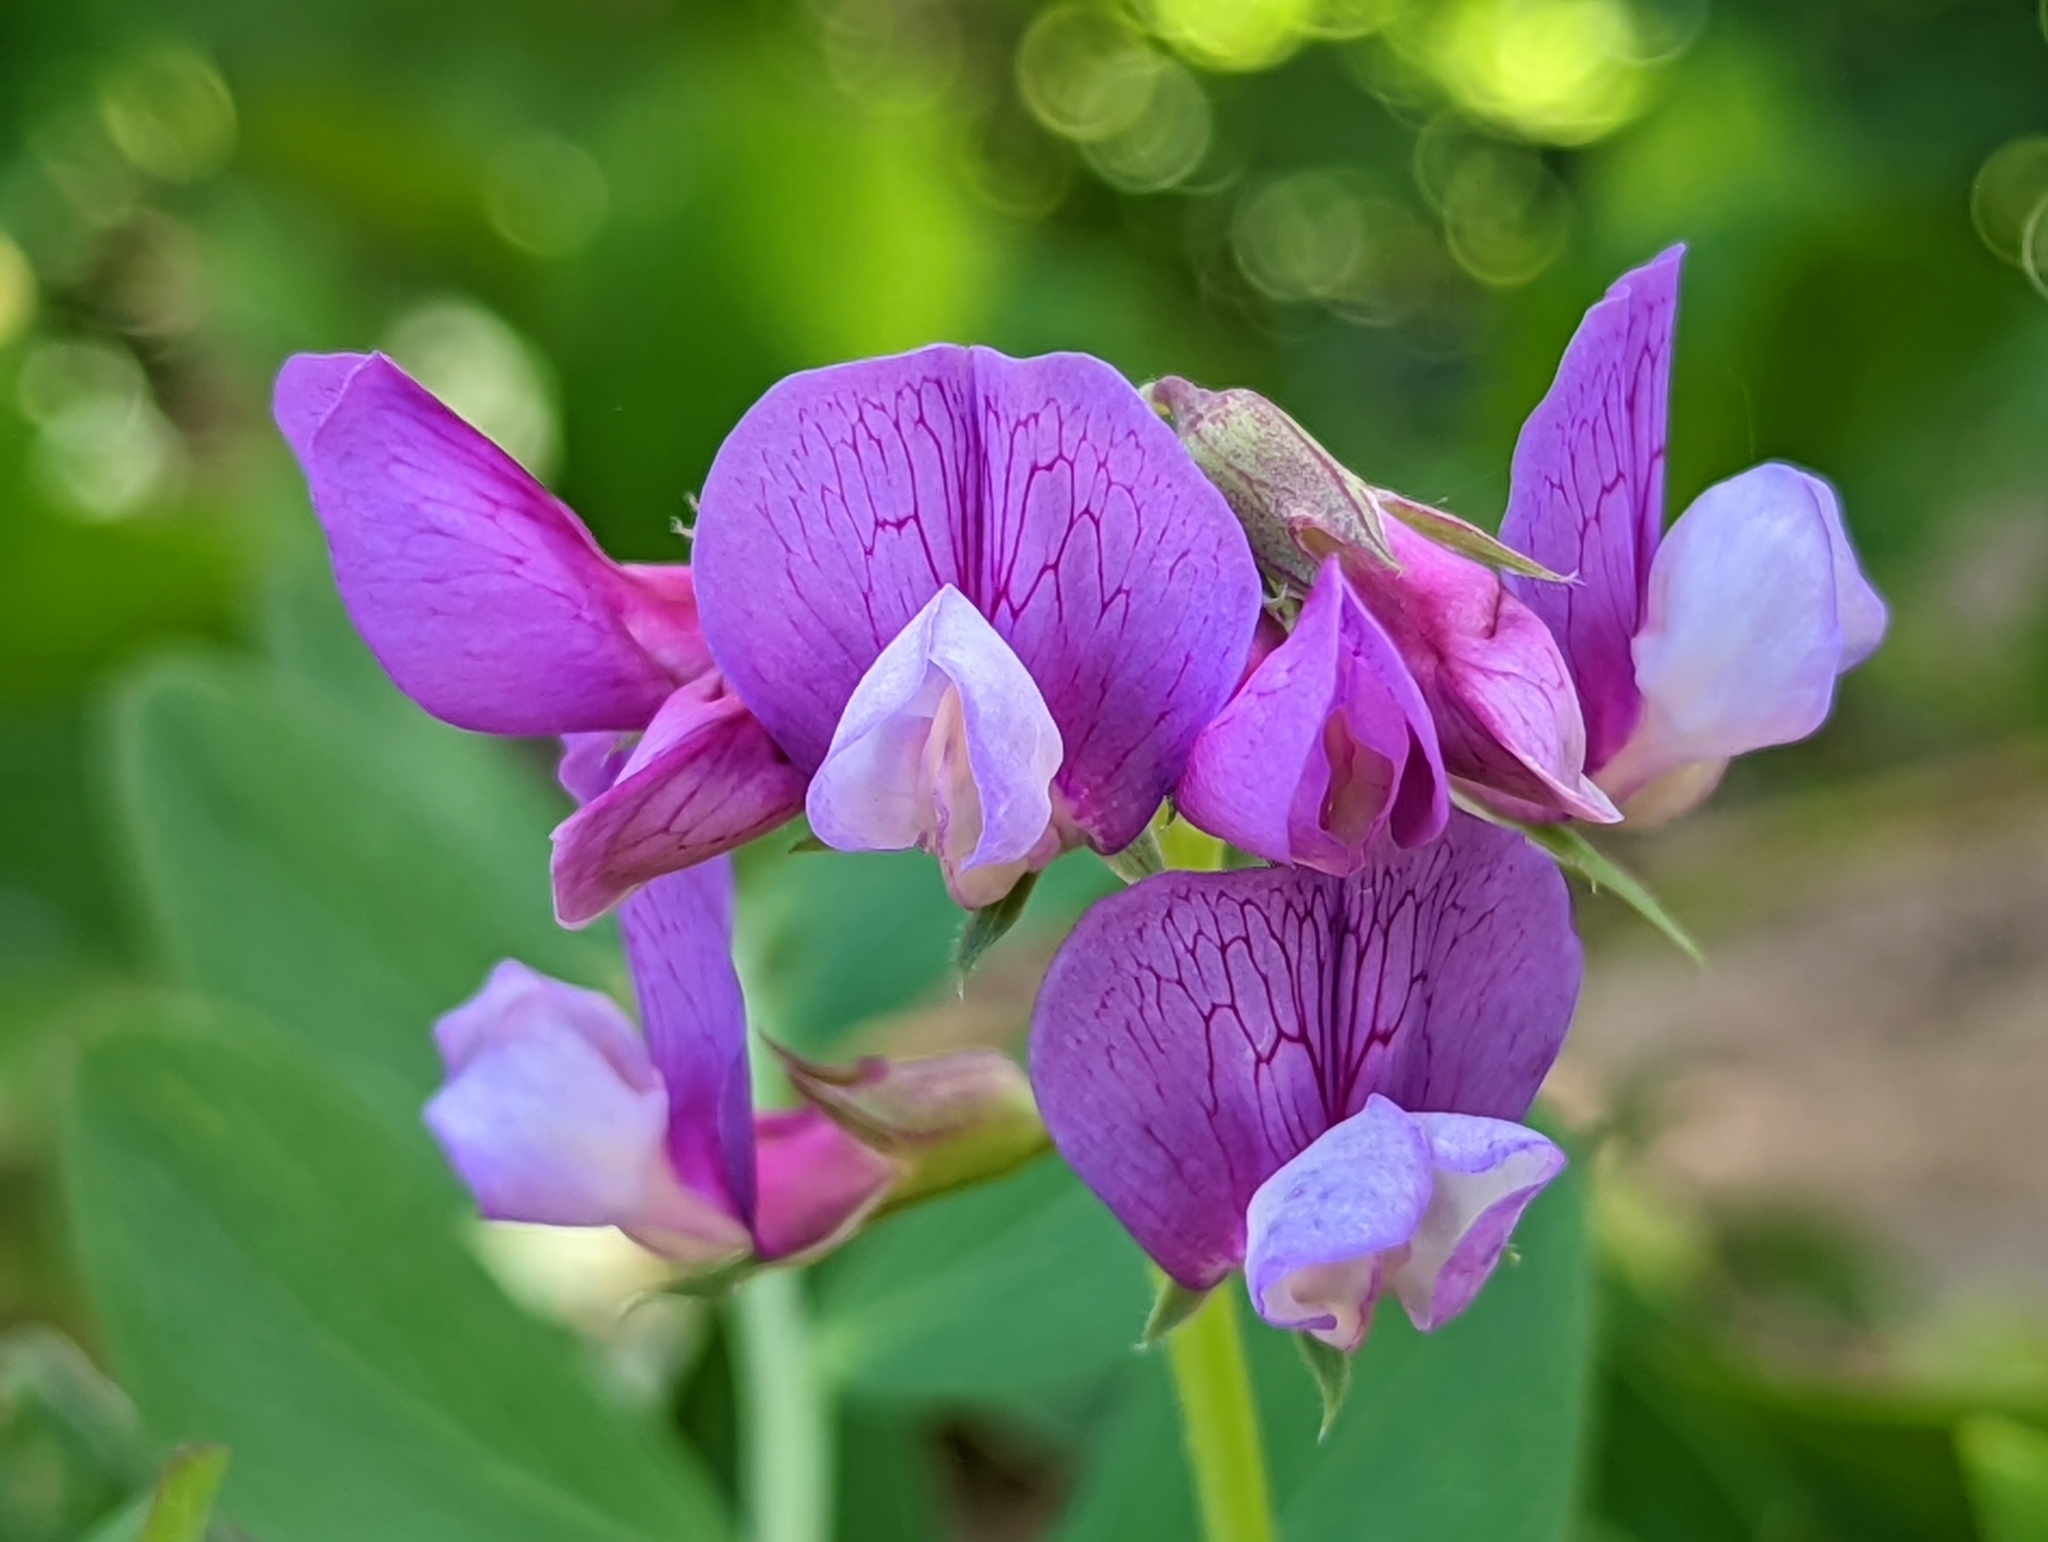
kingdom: Plantae
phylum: Tracheophyta
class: Magnoliopsida
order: Fabales
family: Fabaceae
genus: Lathyrus
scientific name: Lathyrus japonicus
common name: Sea pea
